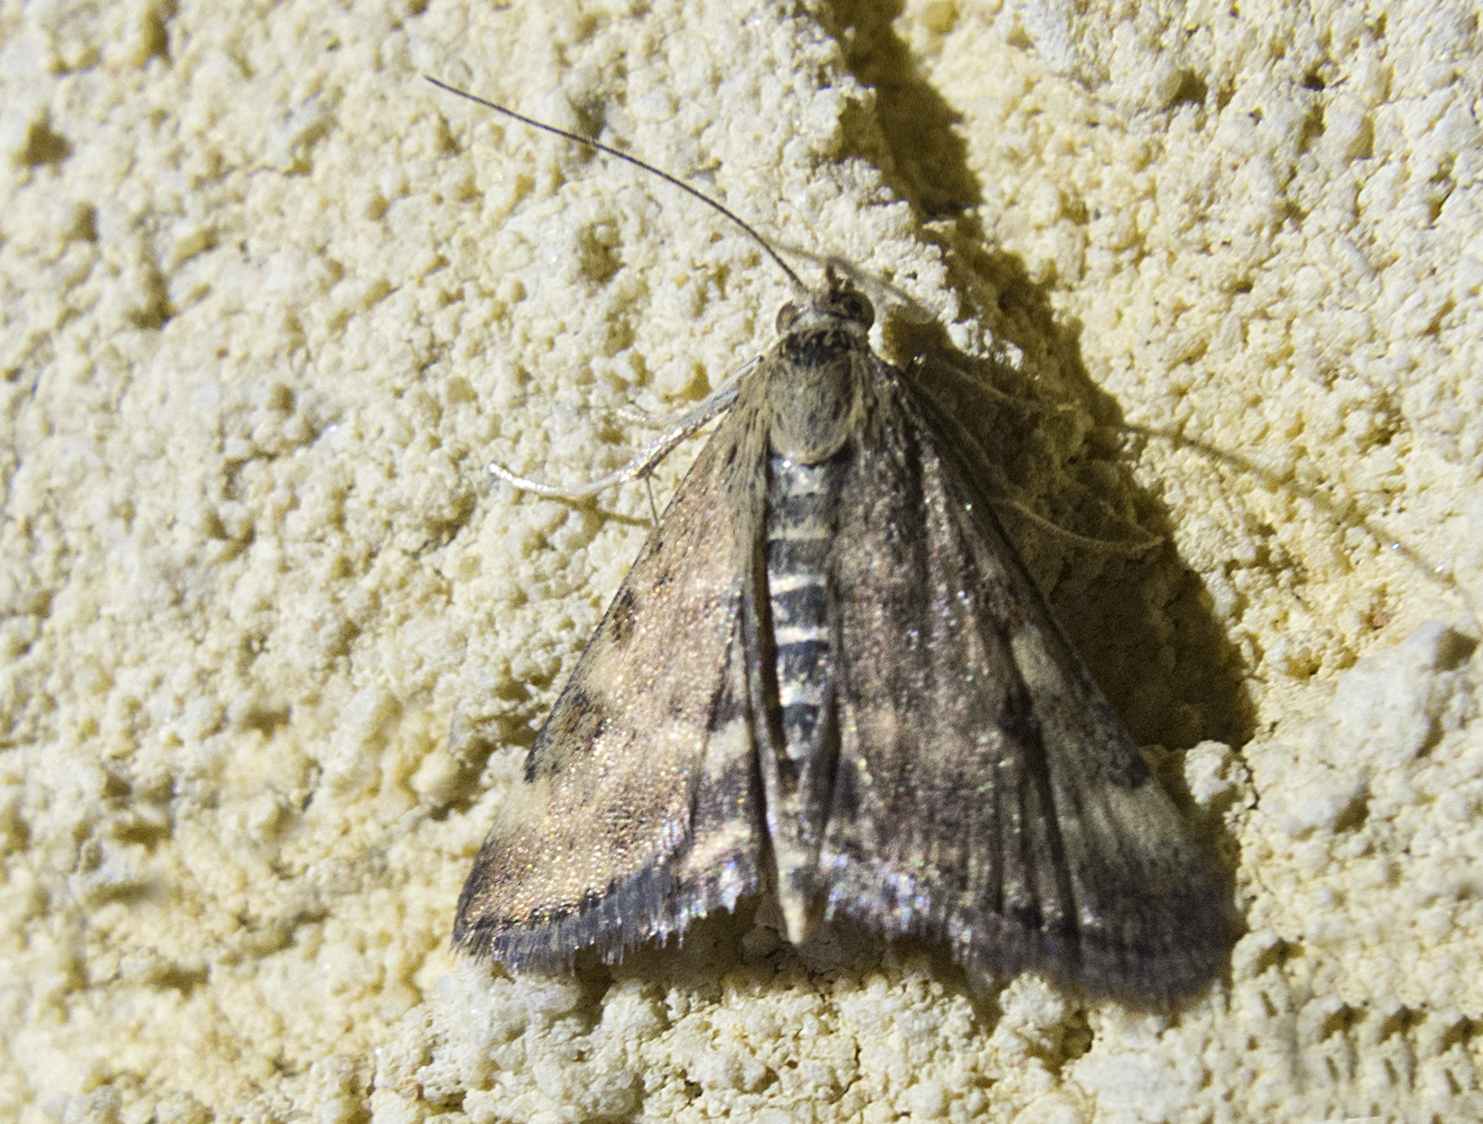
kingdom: Animalia
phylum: Arthropoda
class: Insecta
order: Lepidoptera
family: Crambidae
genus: Pyrausta
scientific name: Pyrausta despicata
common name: Straw-barred pearl
